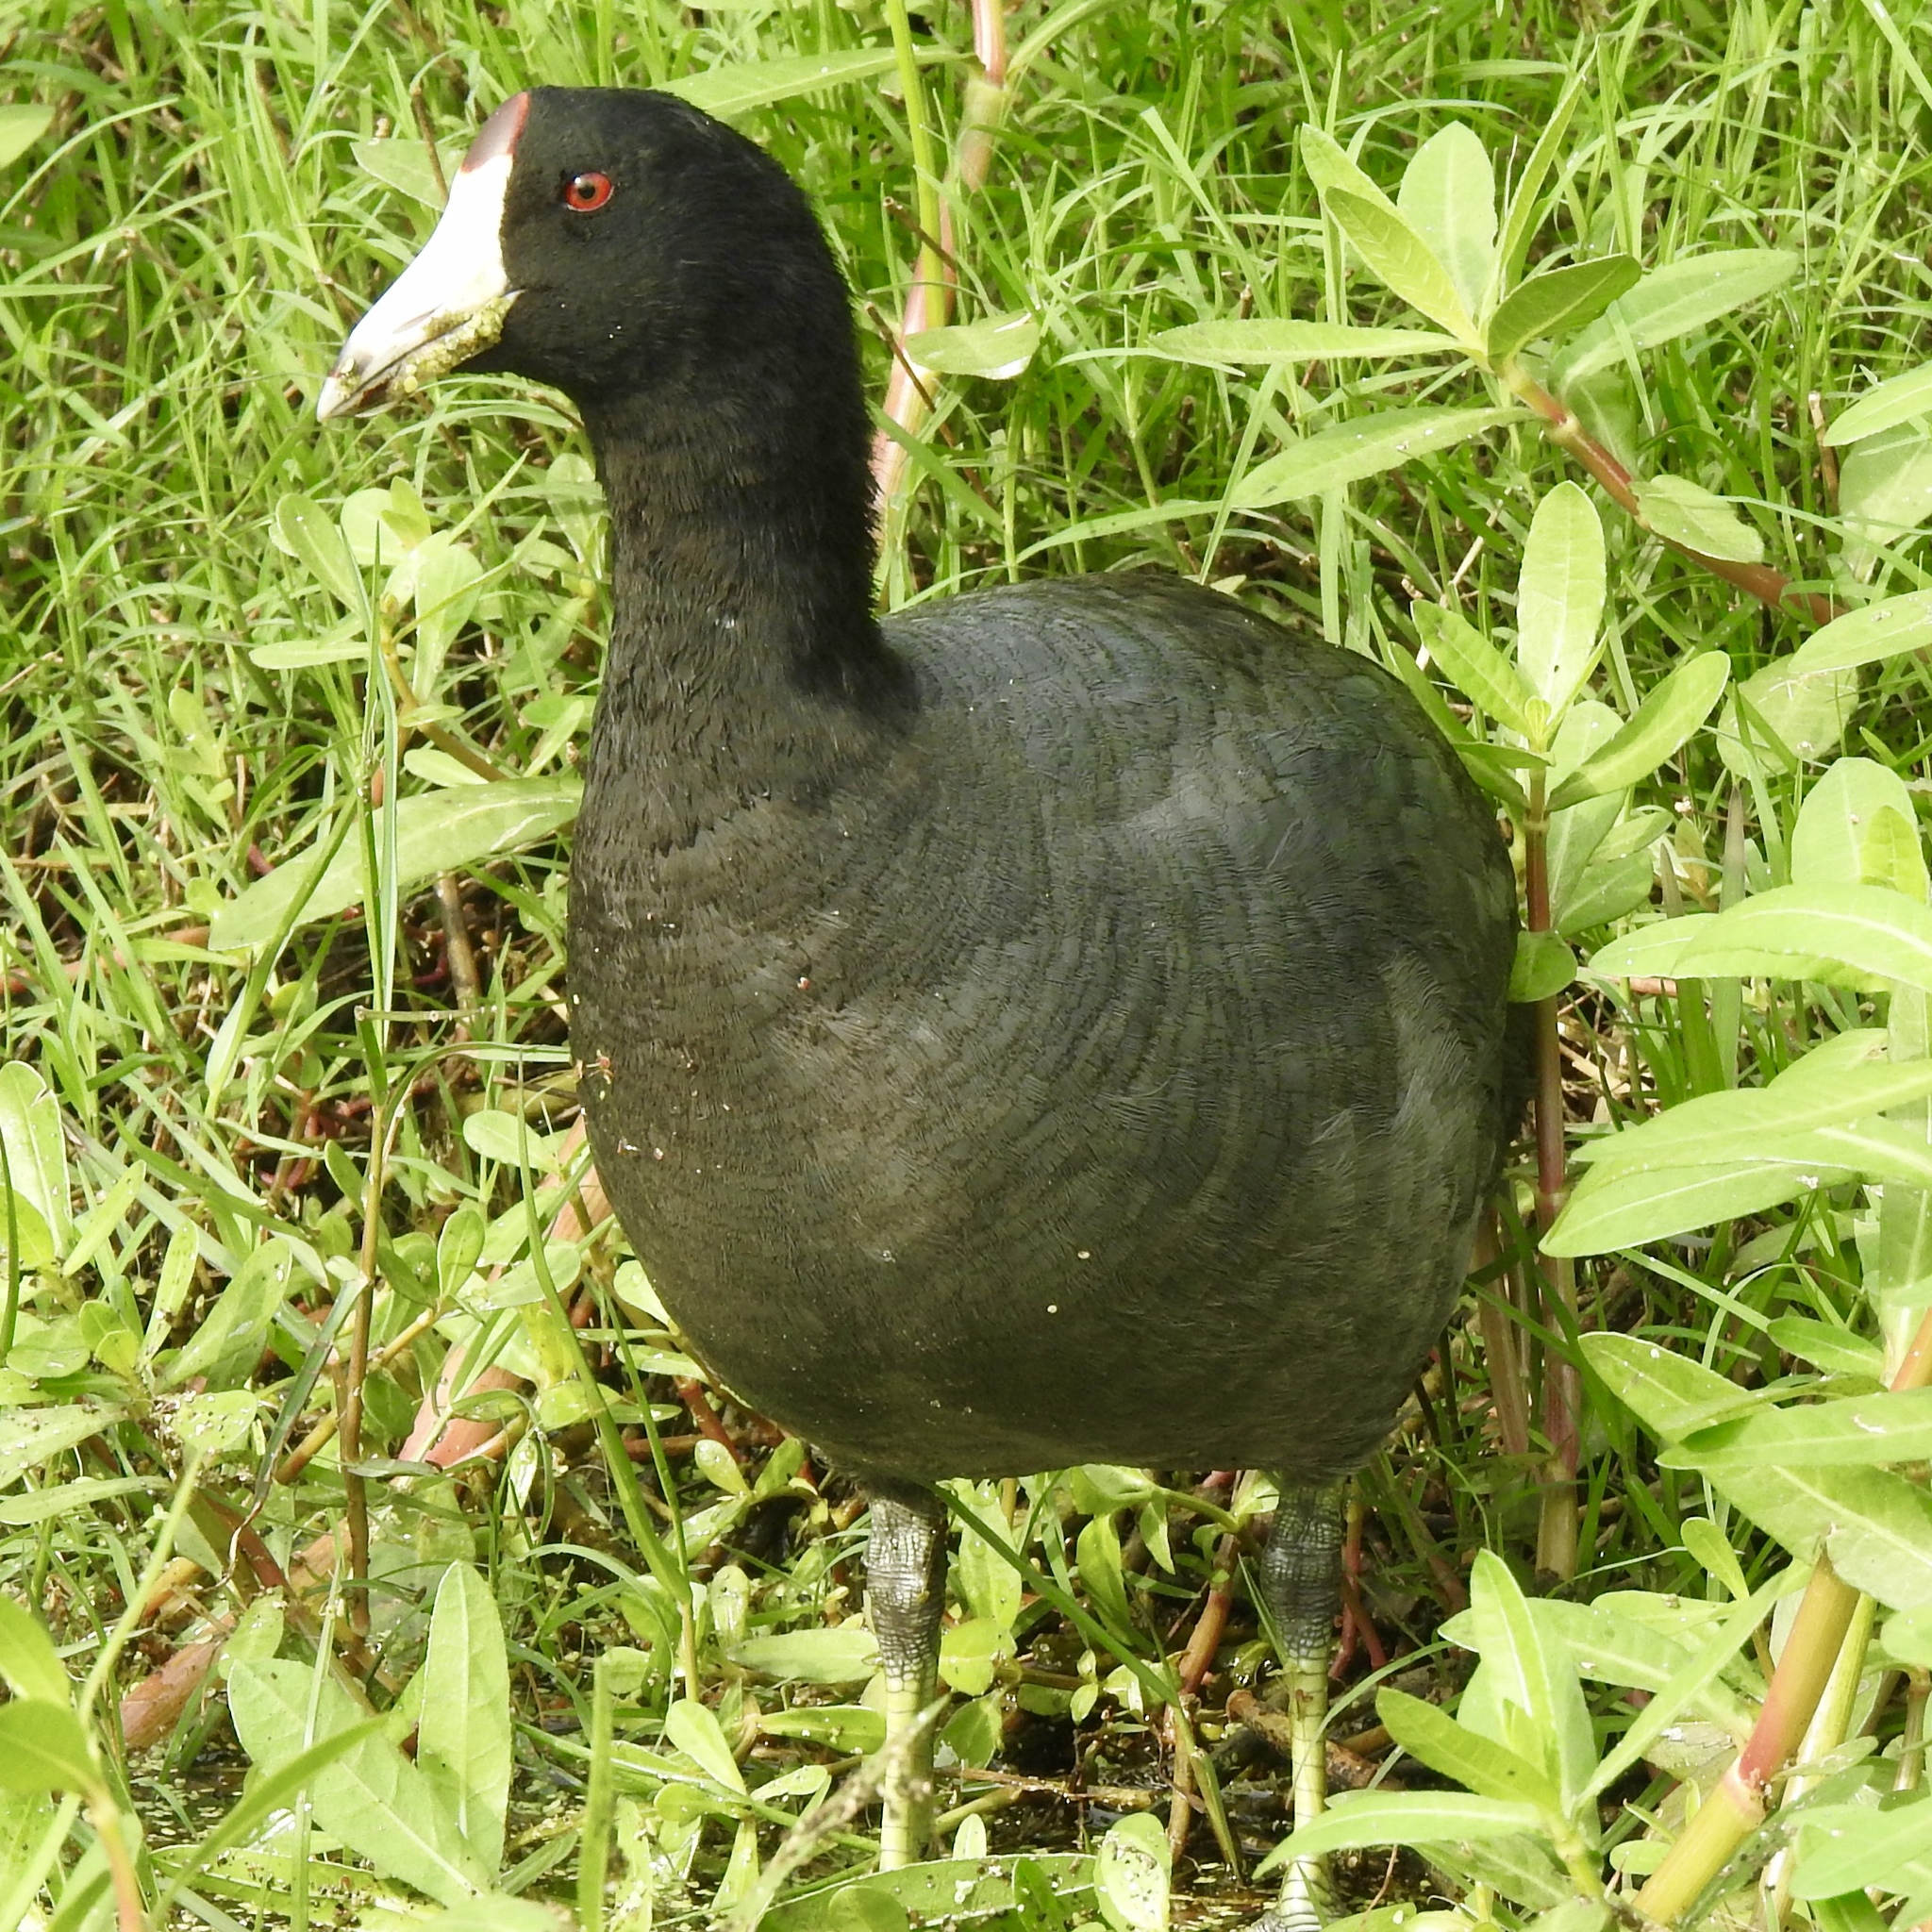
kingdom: Animalia
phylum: Chordata
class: Aves
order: Gruiformes
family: Rallidae
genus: Fulica
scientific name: Fulica americana
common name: American coot
